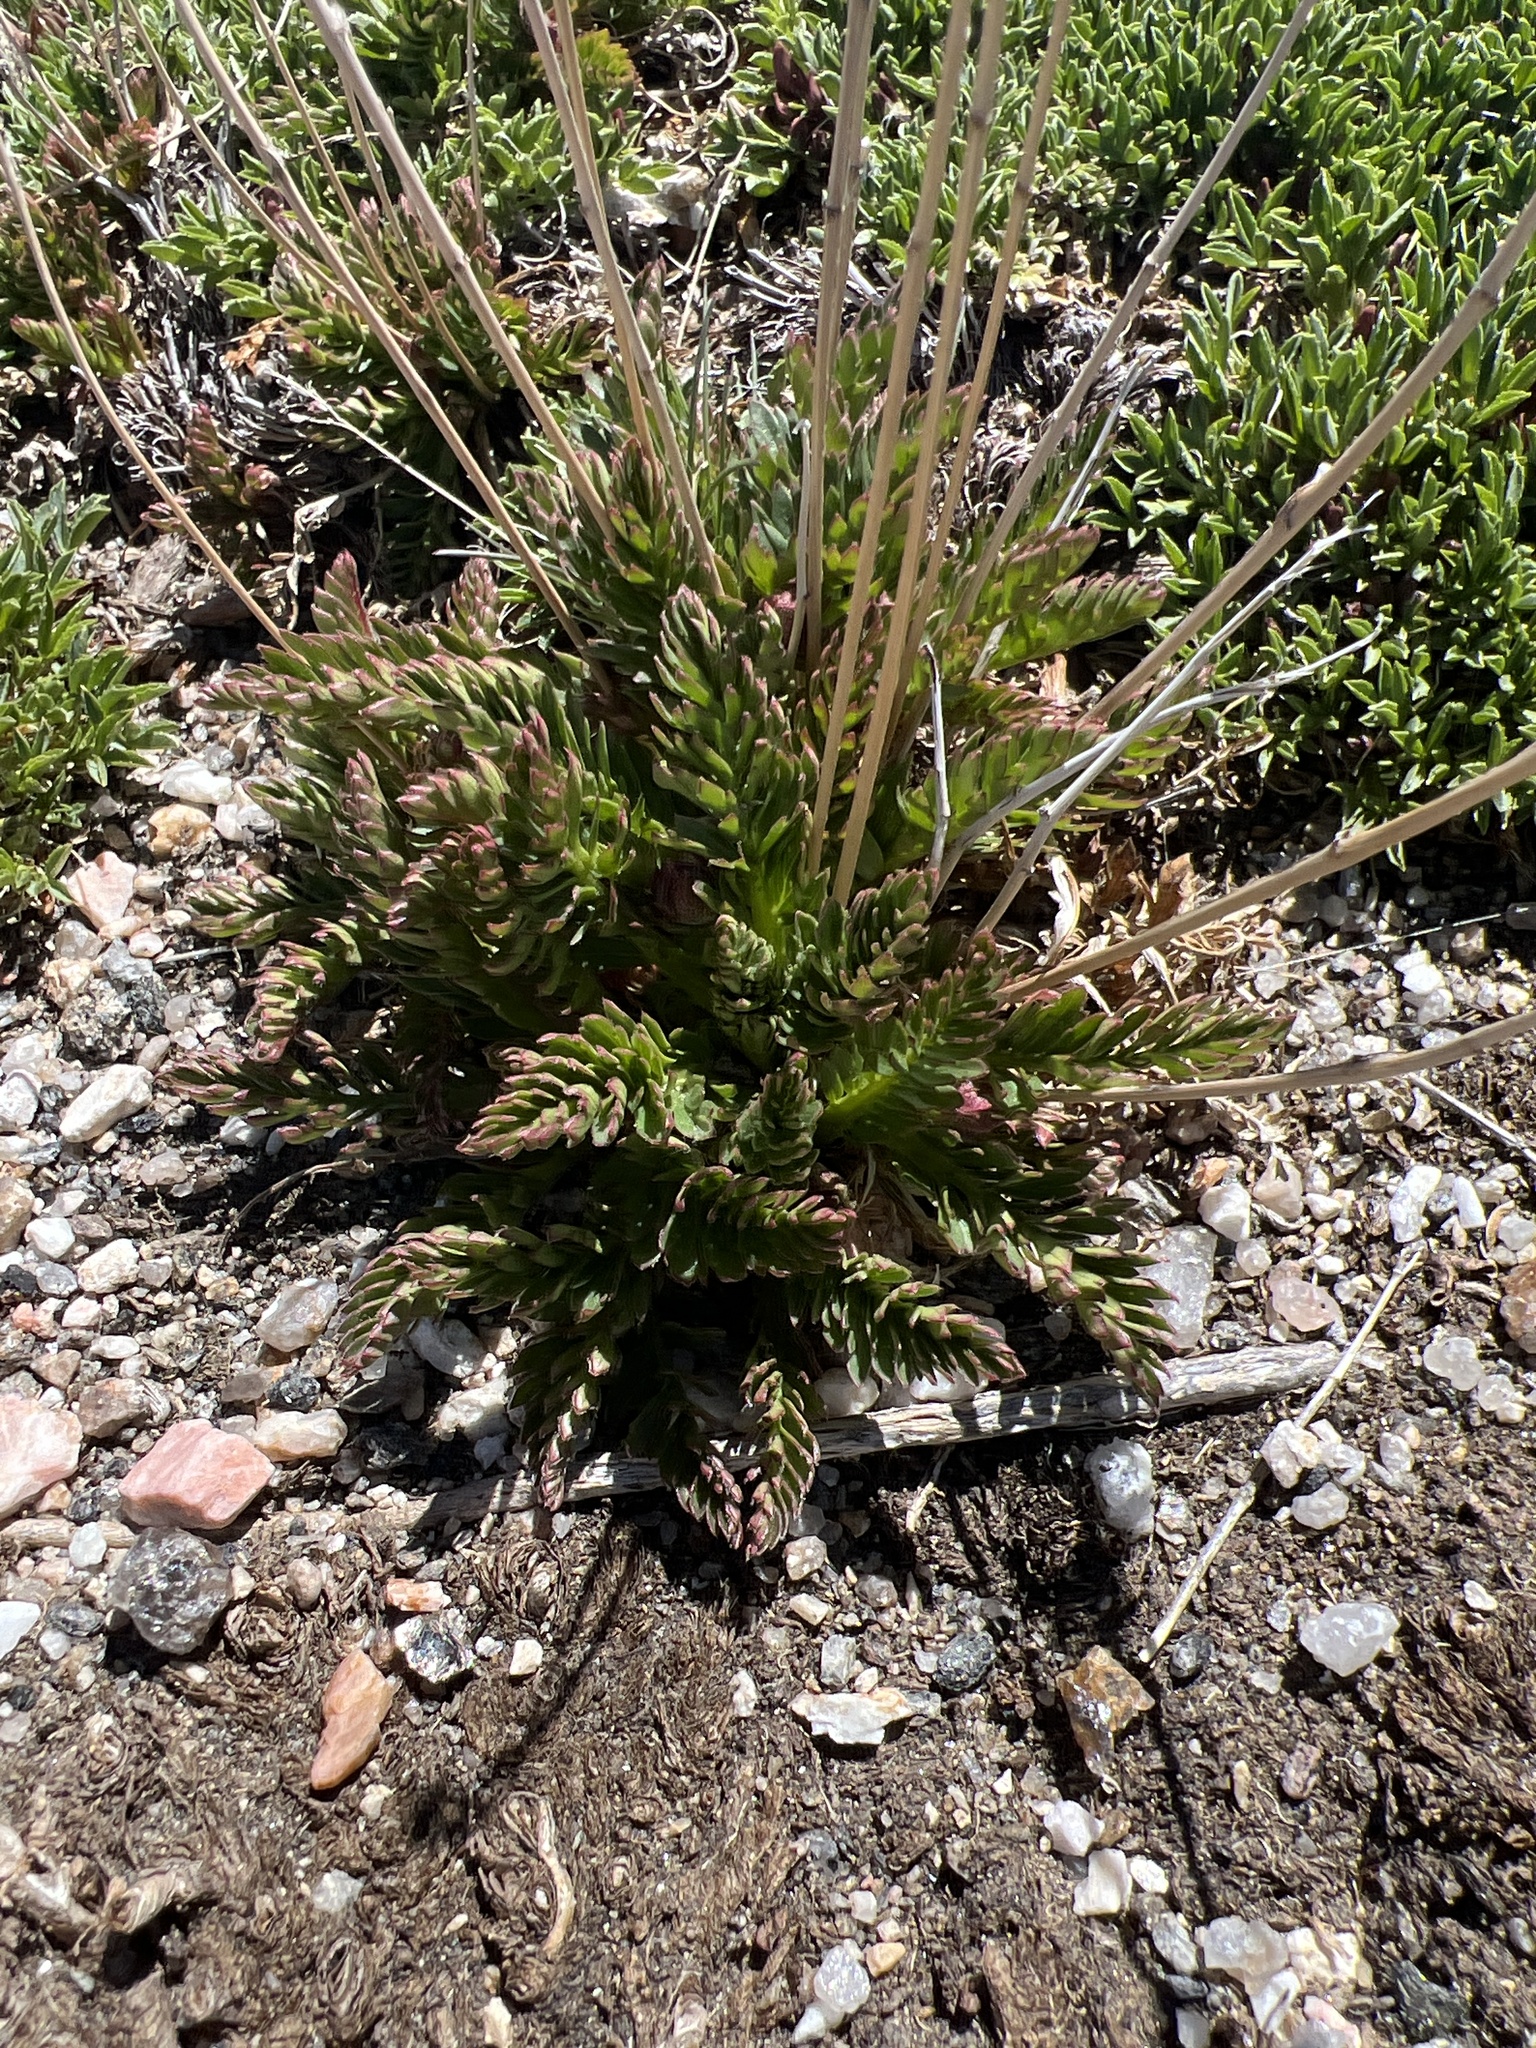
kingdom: Plantae
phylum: Tracheophyta
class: Magnoliopsida
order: Rosales
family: Rosaceae
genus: Geum
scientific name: Geum rossii
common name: Alpine avens
